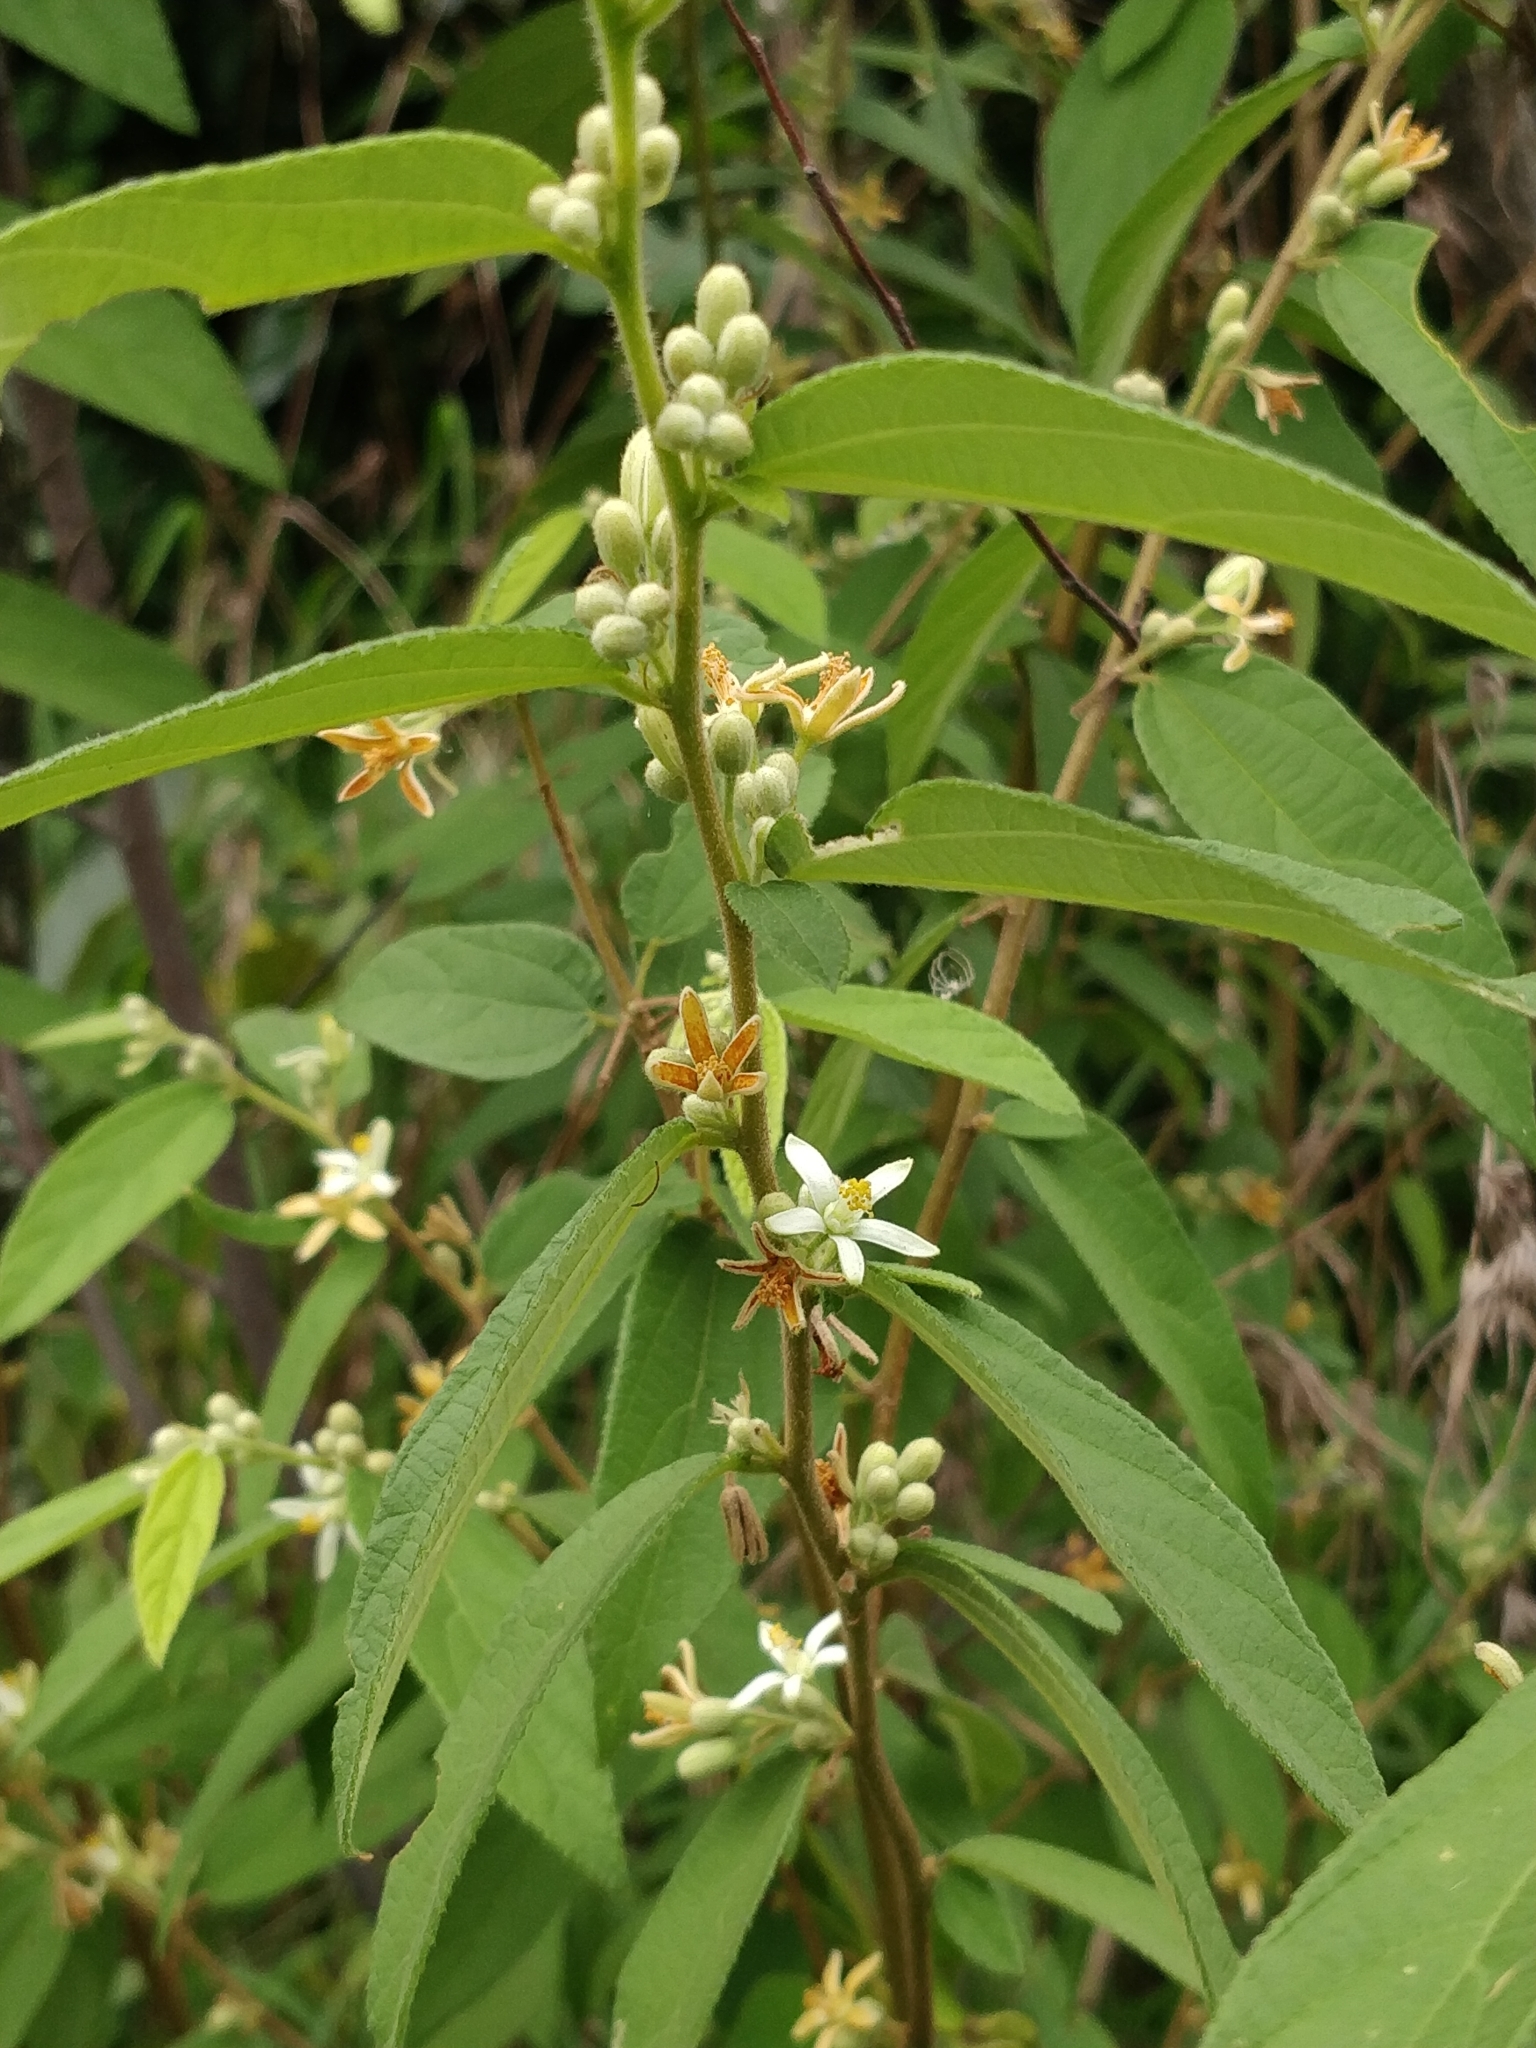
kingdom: Plantae
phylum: Tracheophyta
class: Magnoliopsida
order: Malvales
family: Malvaceae
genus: Grewia
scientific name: Grewia hirsuta
